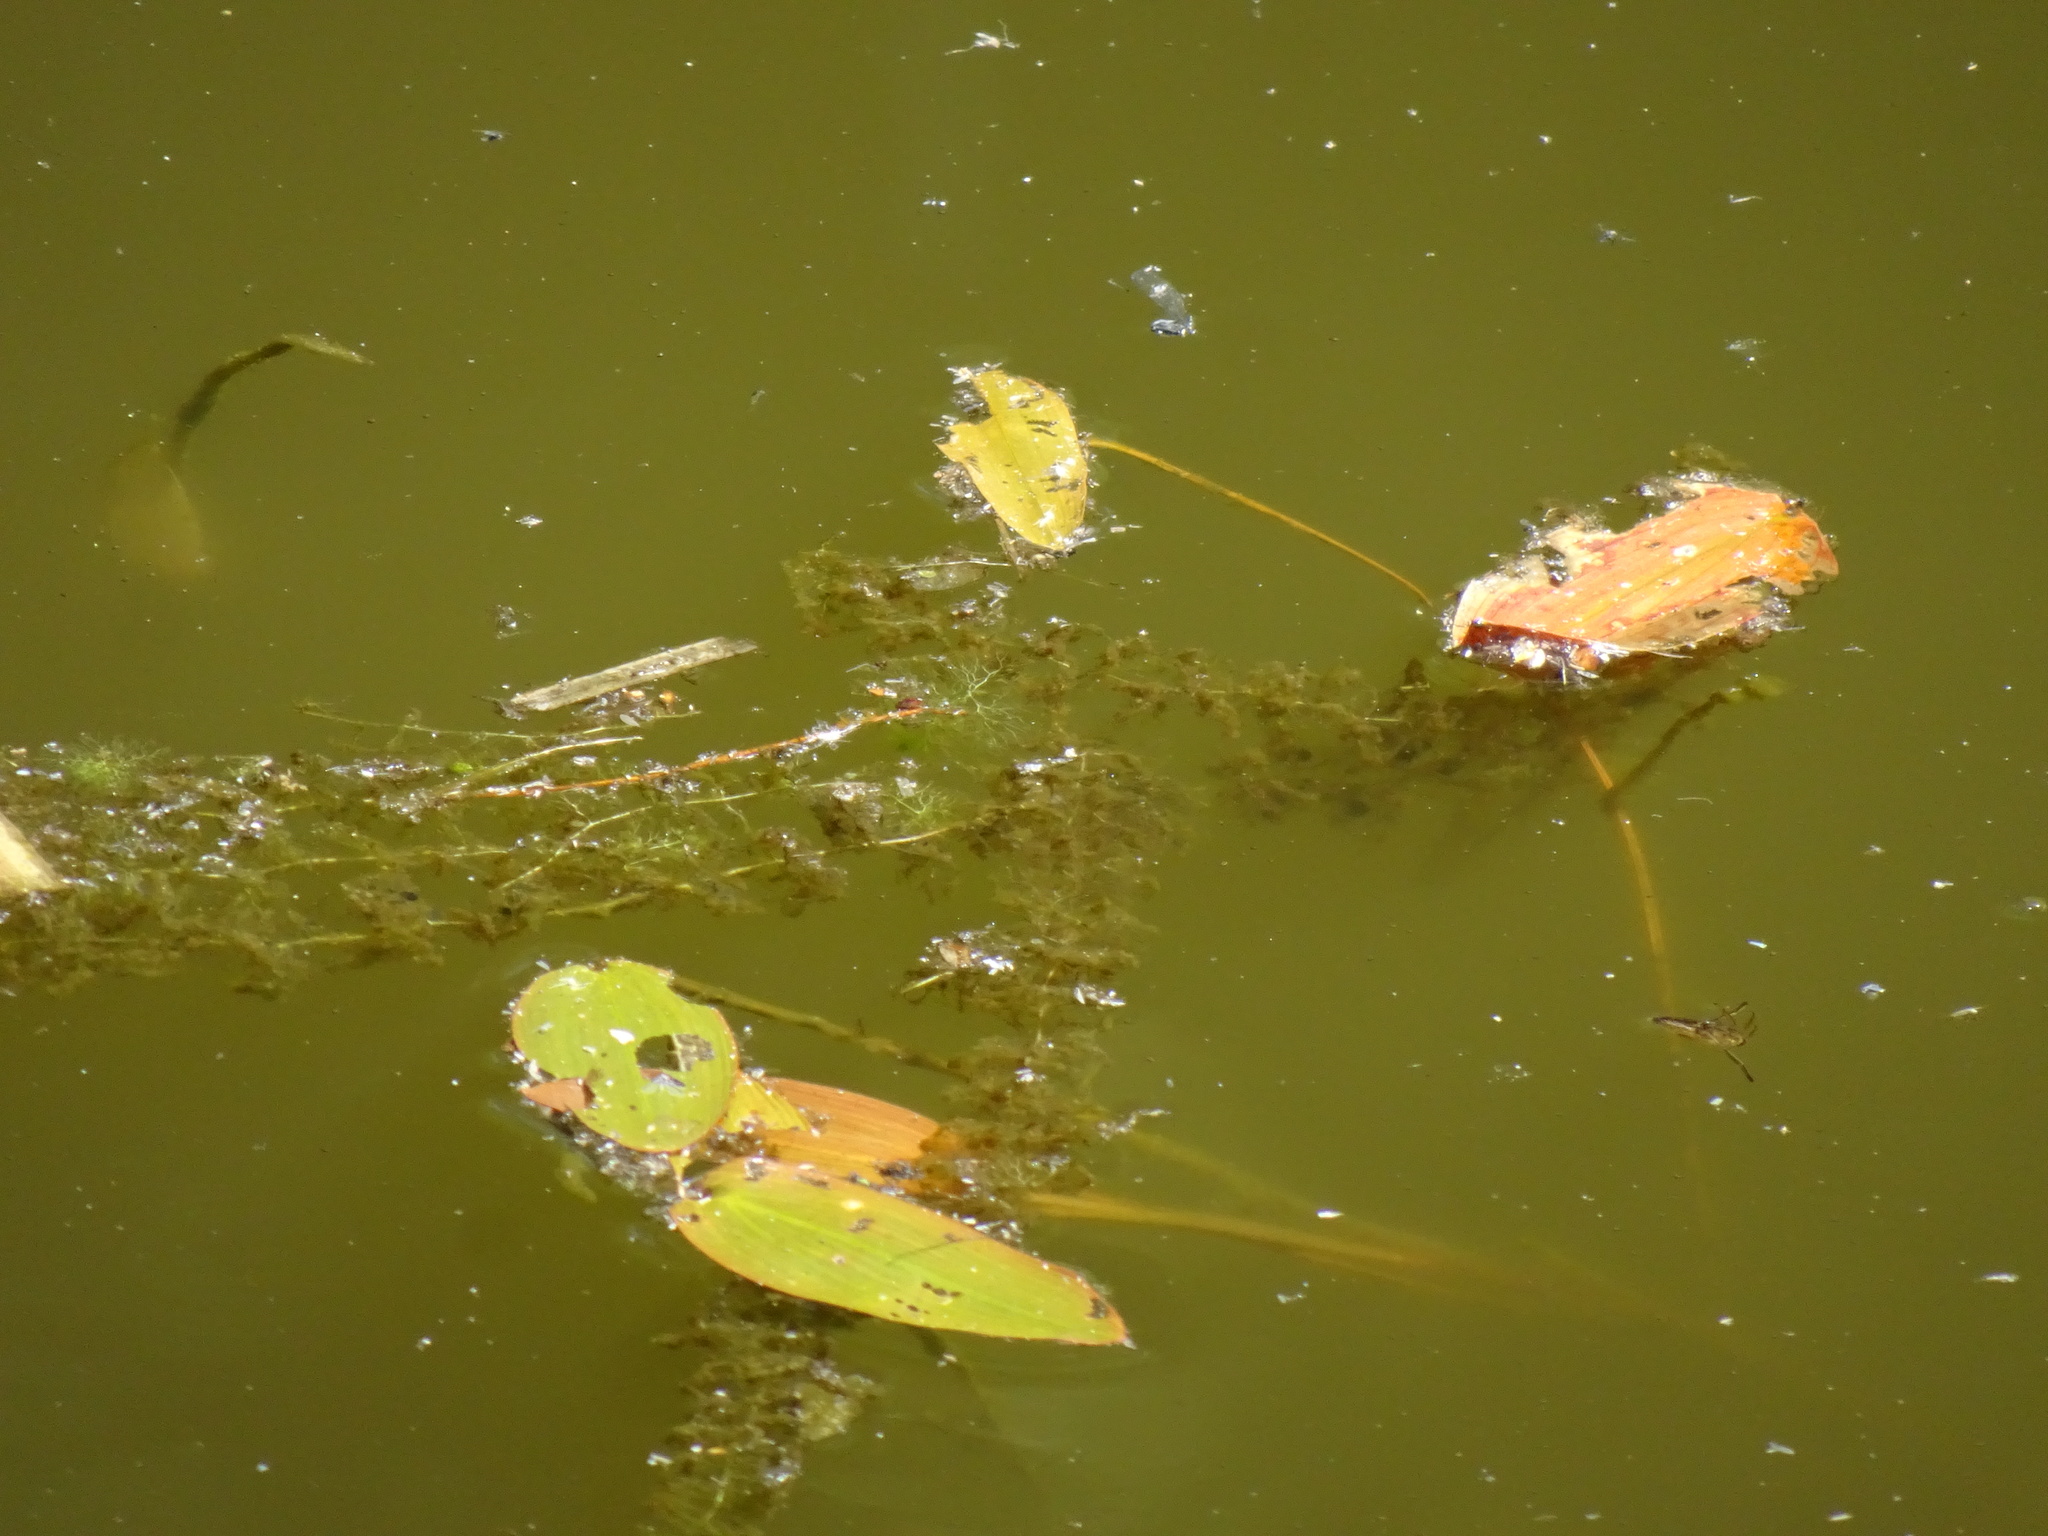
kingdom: Plantae
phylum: Tracheophyta
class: Liliopsida
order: Alismatales
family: Potamogetonaceae
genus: Potamogeton
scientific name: Potamogeton natans
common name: Broad-leaved pondweed
